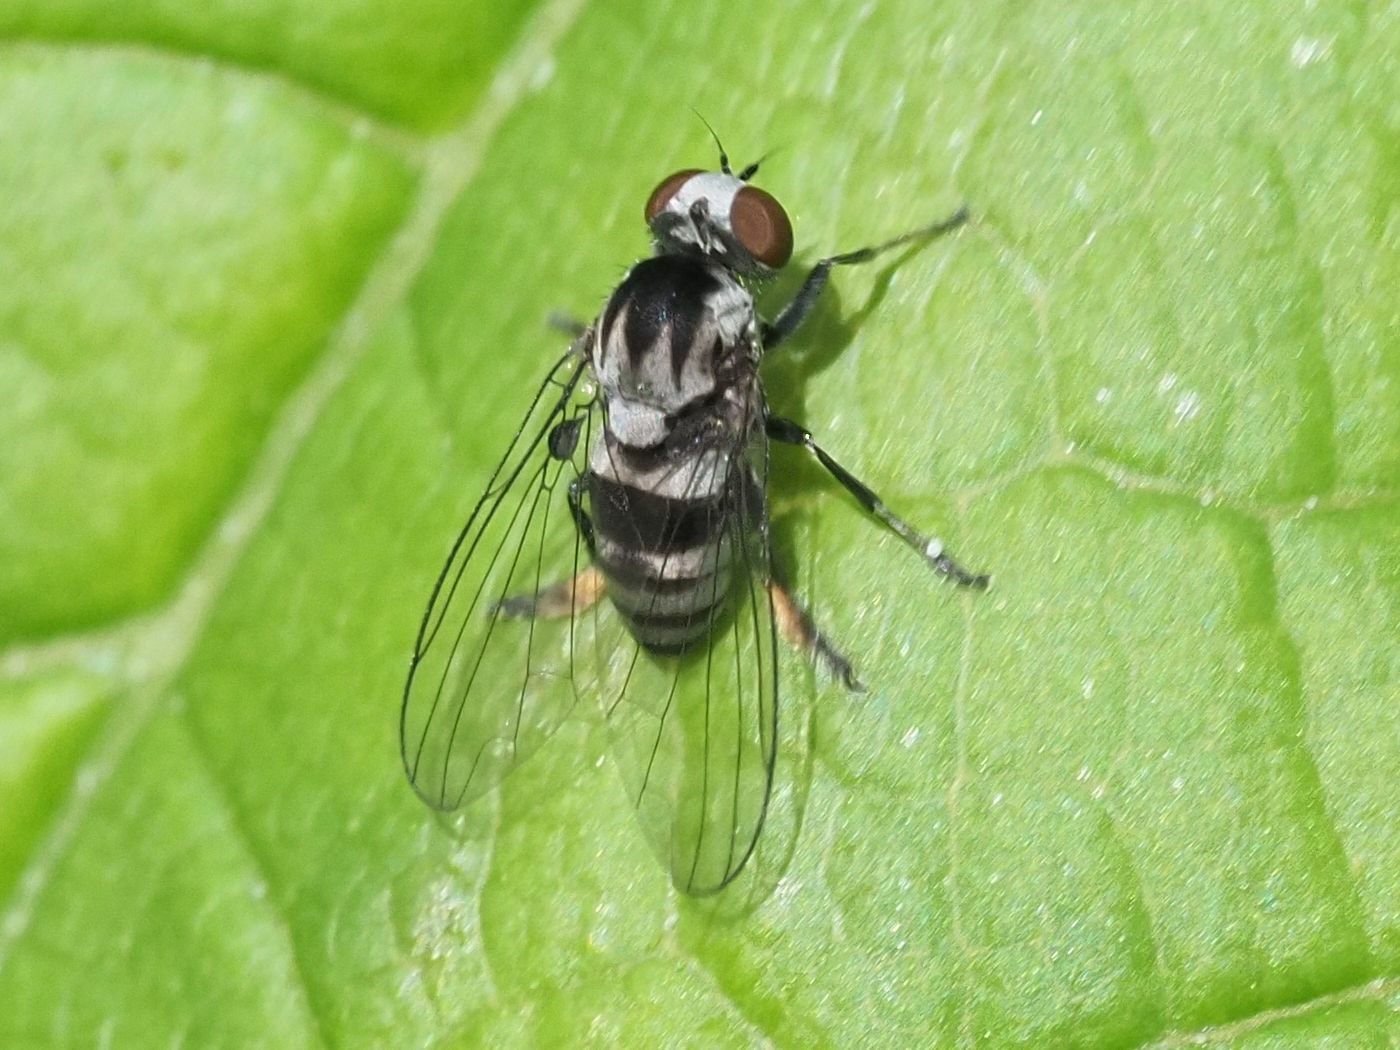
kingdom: Animalia
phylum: Arthropoda
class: Insecta
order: Diptera
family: Platypezidae
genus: Polyporivora
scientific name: Polyporivora ornata
